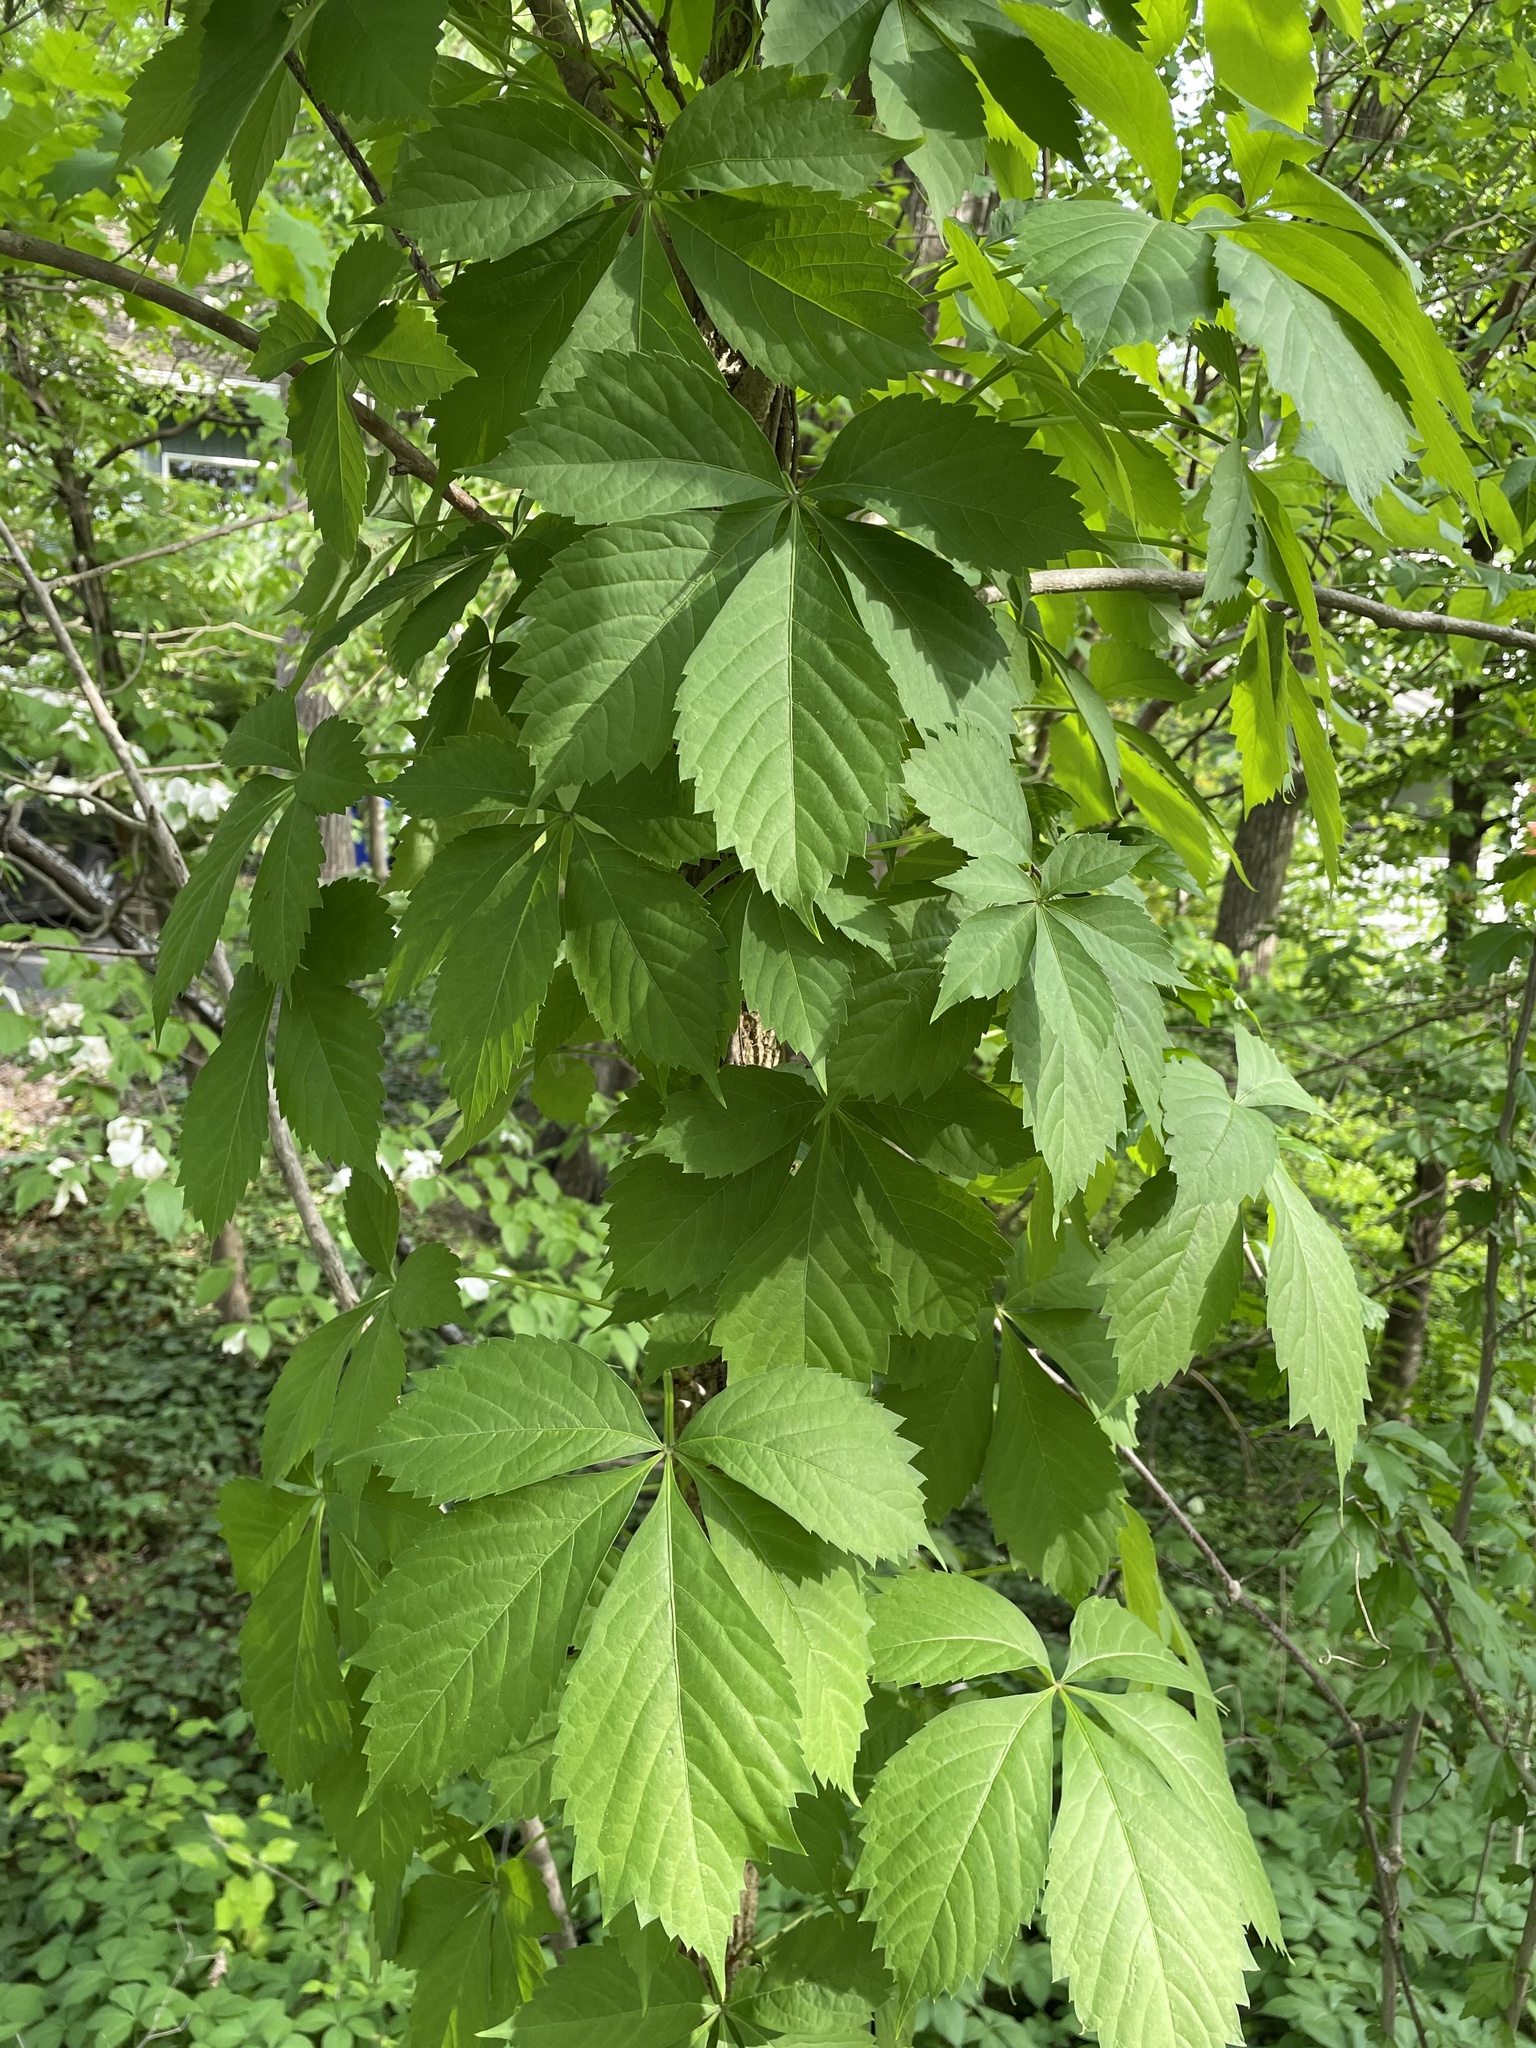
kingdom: Plantae
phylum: Tracheophyta
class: Magnoliopsida
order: Vitales
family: Vitaceae
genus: Parthenocissus
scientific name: Parthenocissus quinquefolia
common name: Virginia-creeper
